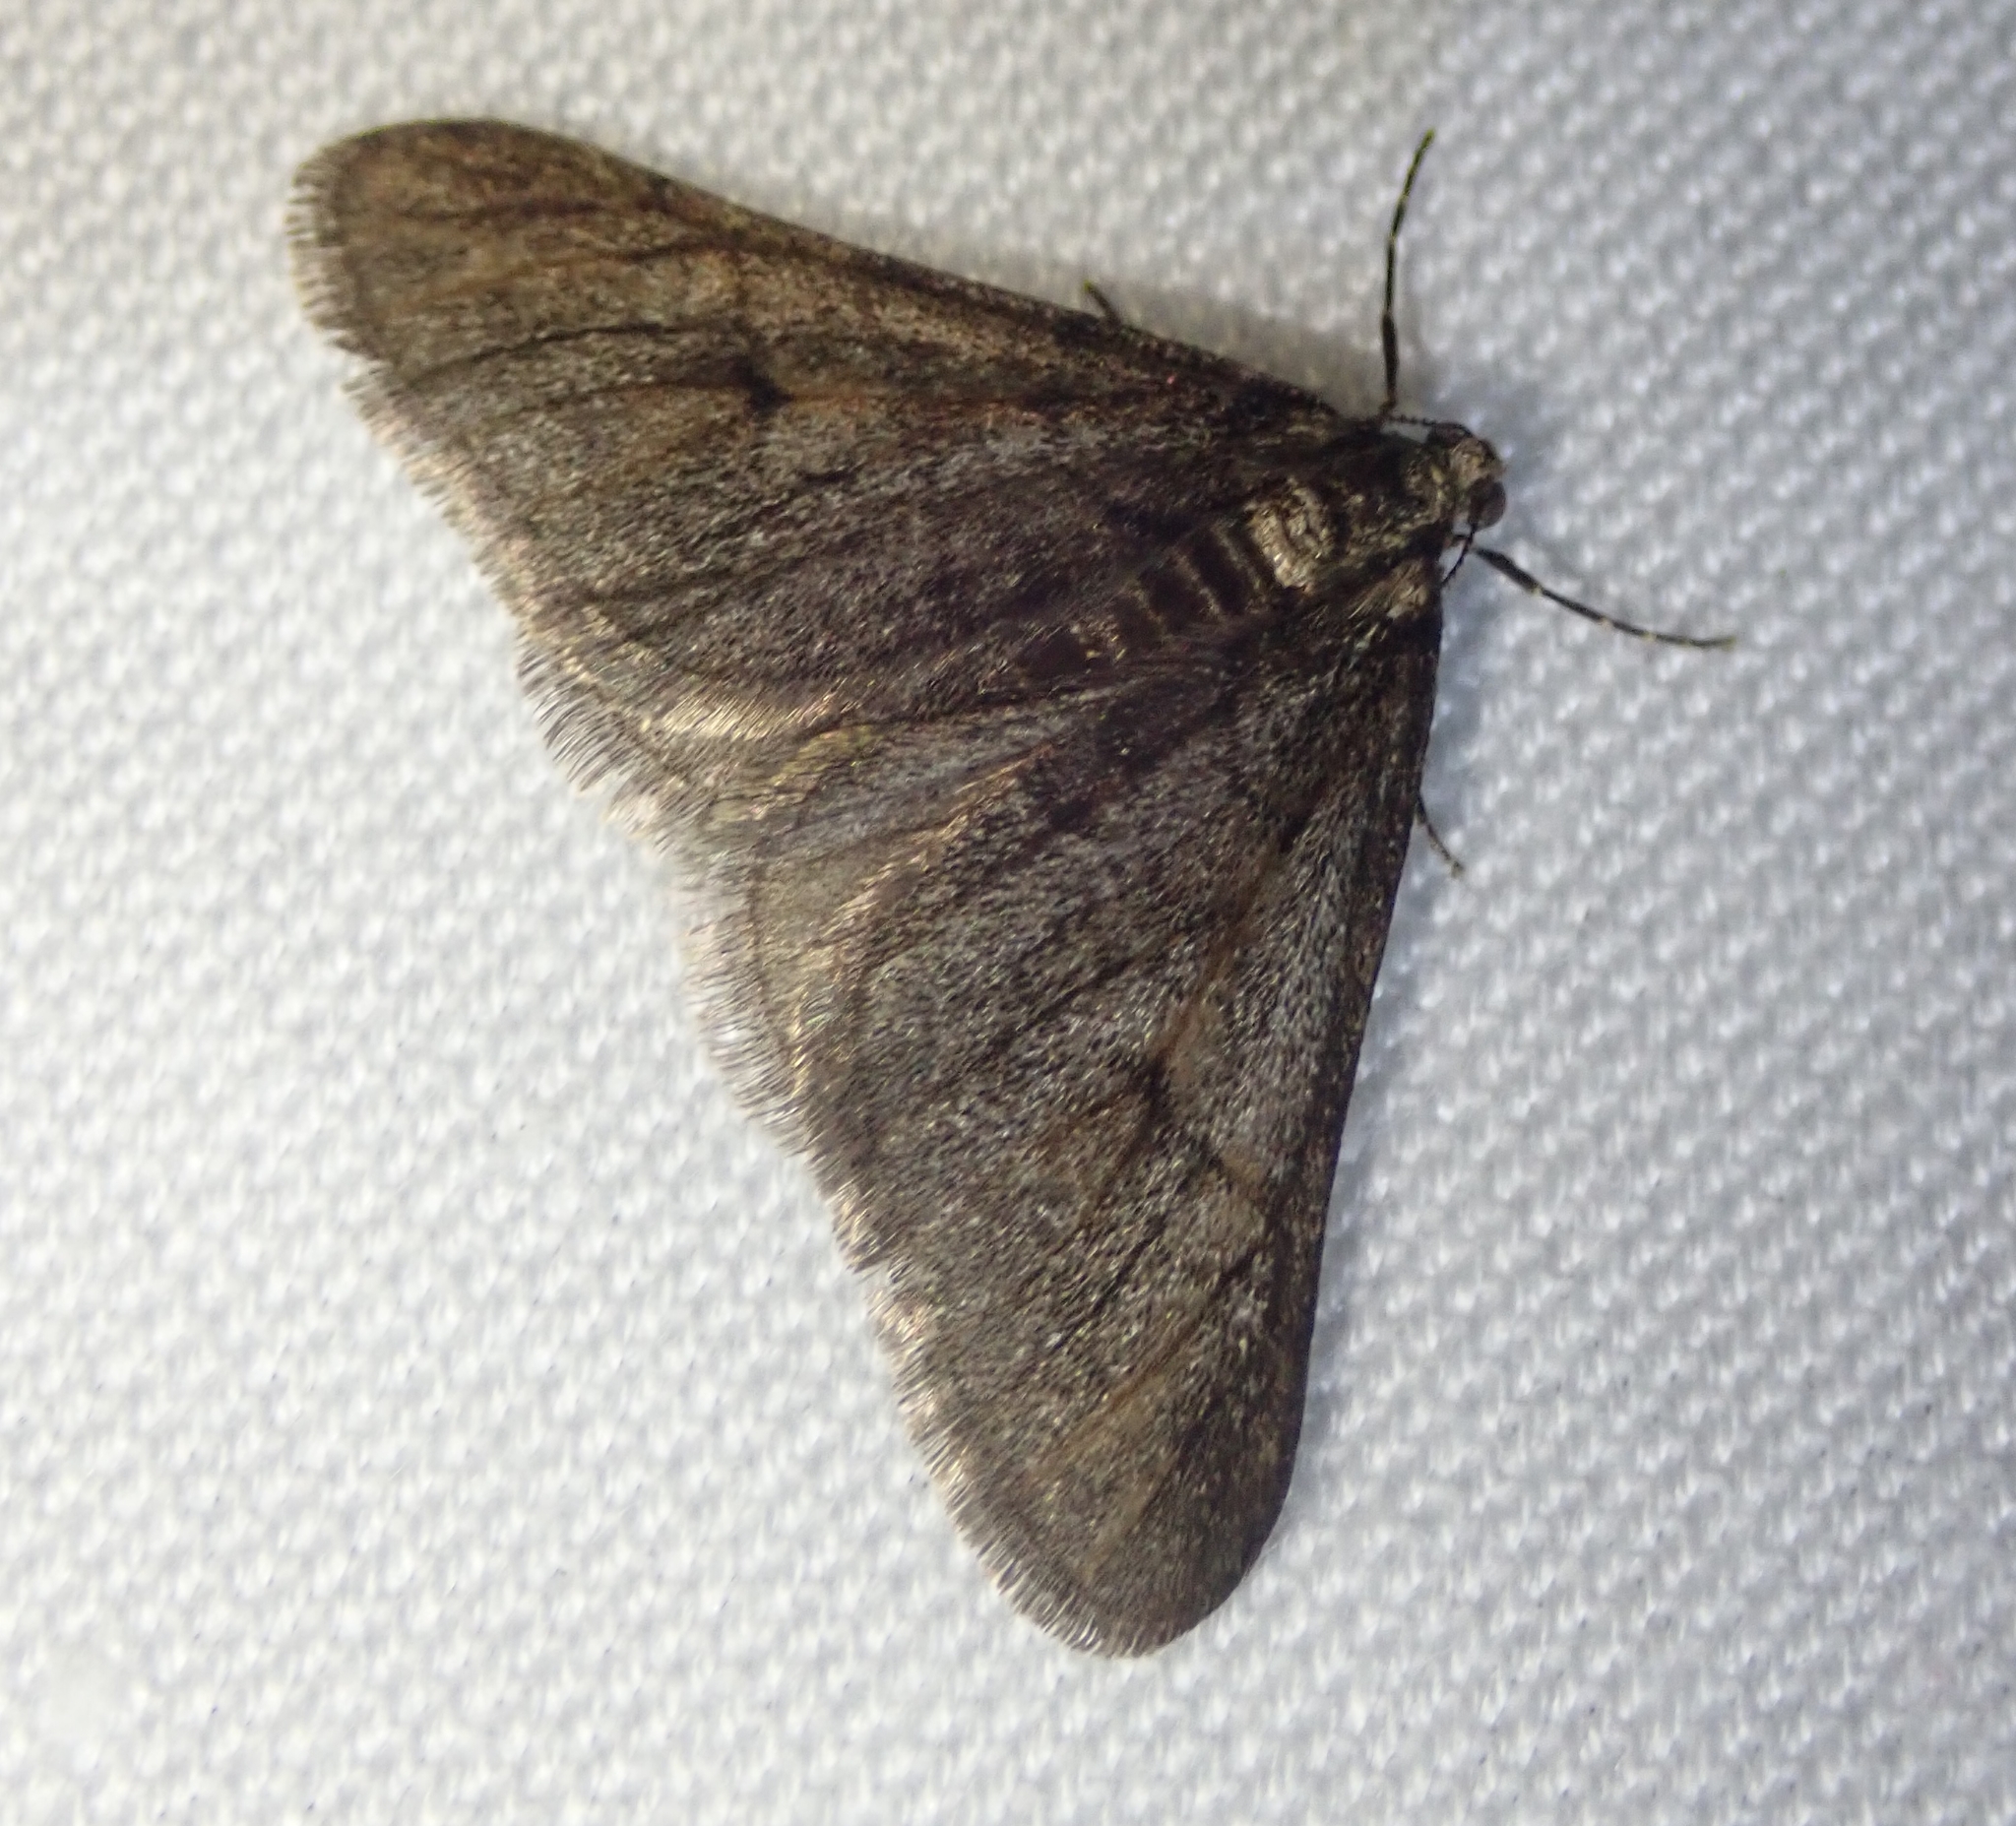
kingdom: Animalia
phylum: Arthropoda
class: Insecta
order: Lepidoptera
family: Geometridae
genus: Agriopis
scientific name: Agriopis leucophaearia
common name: Spring usher
